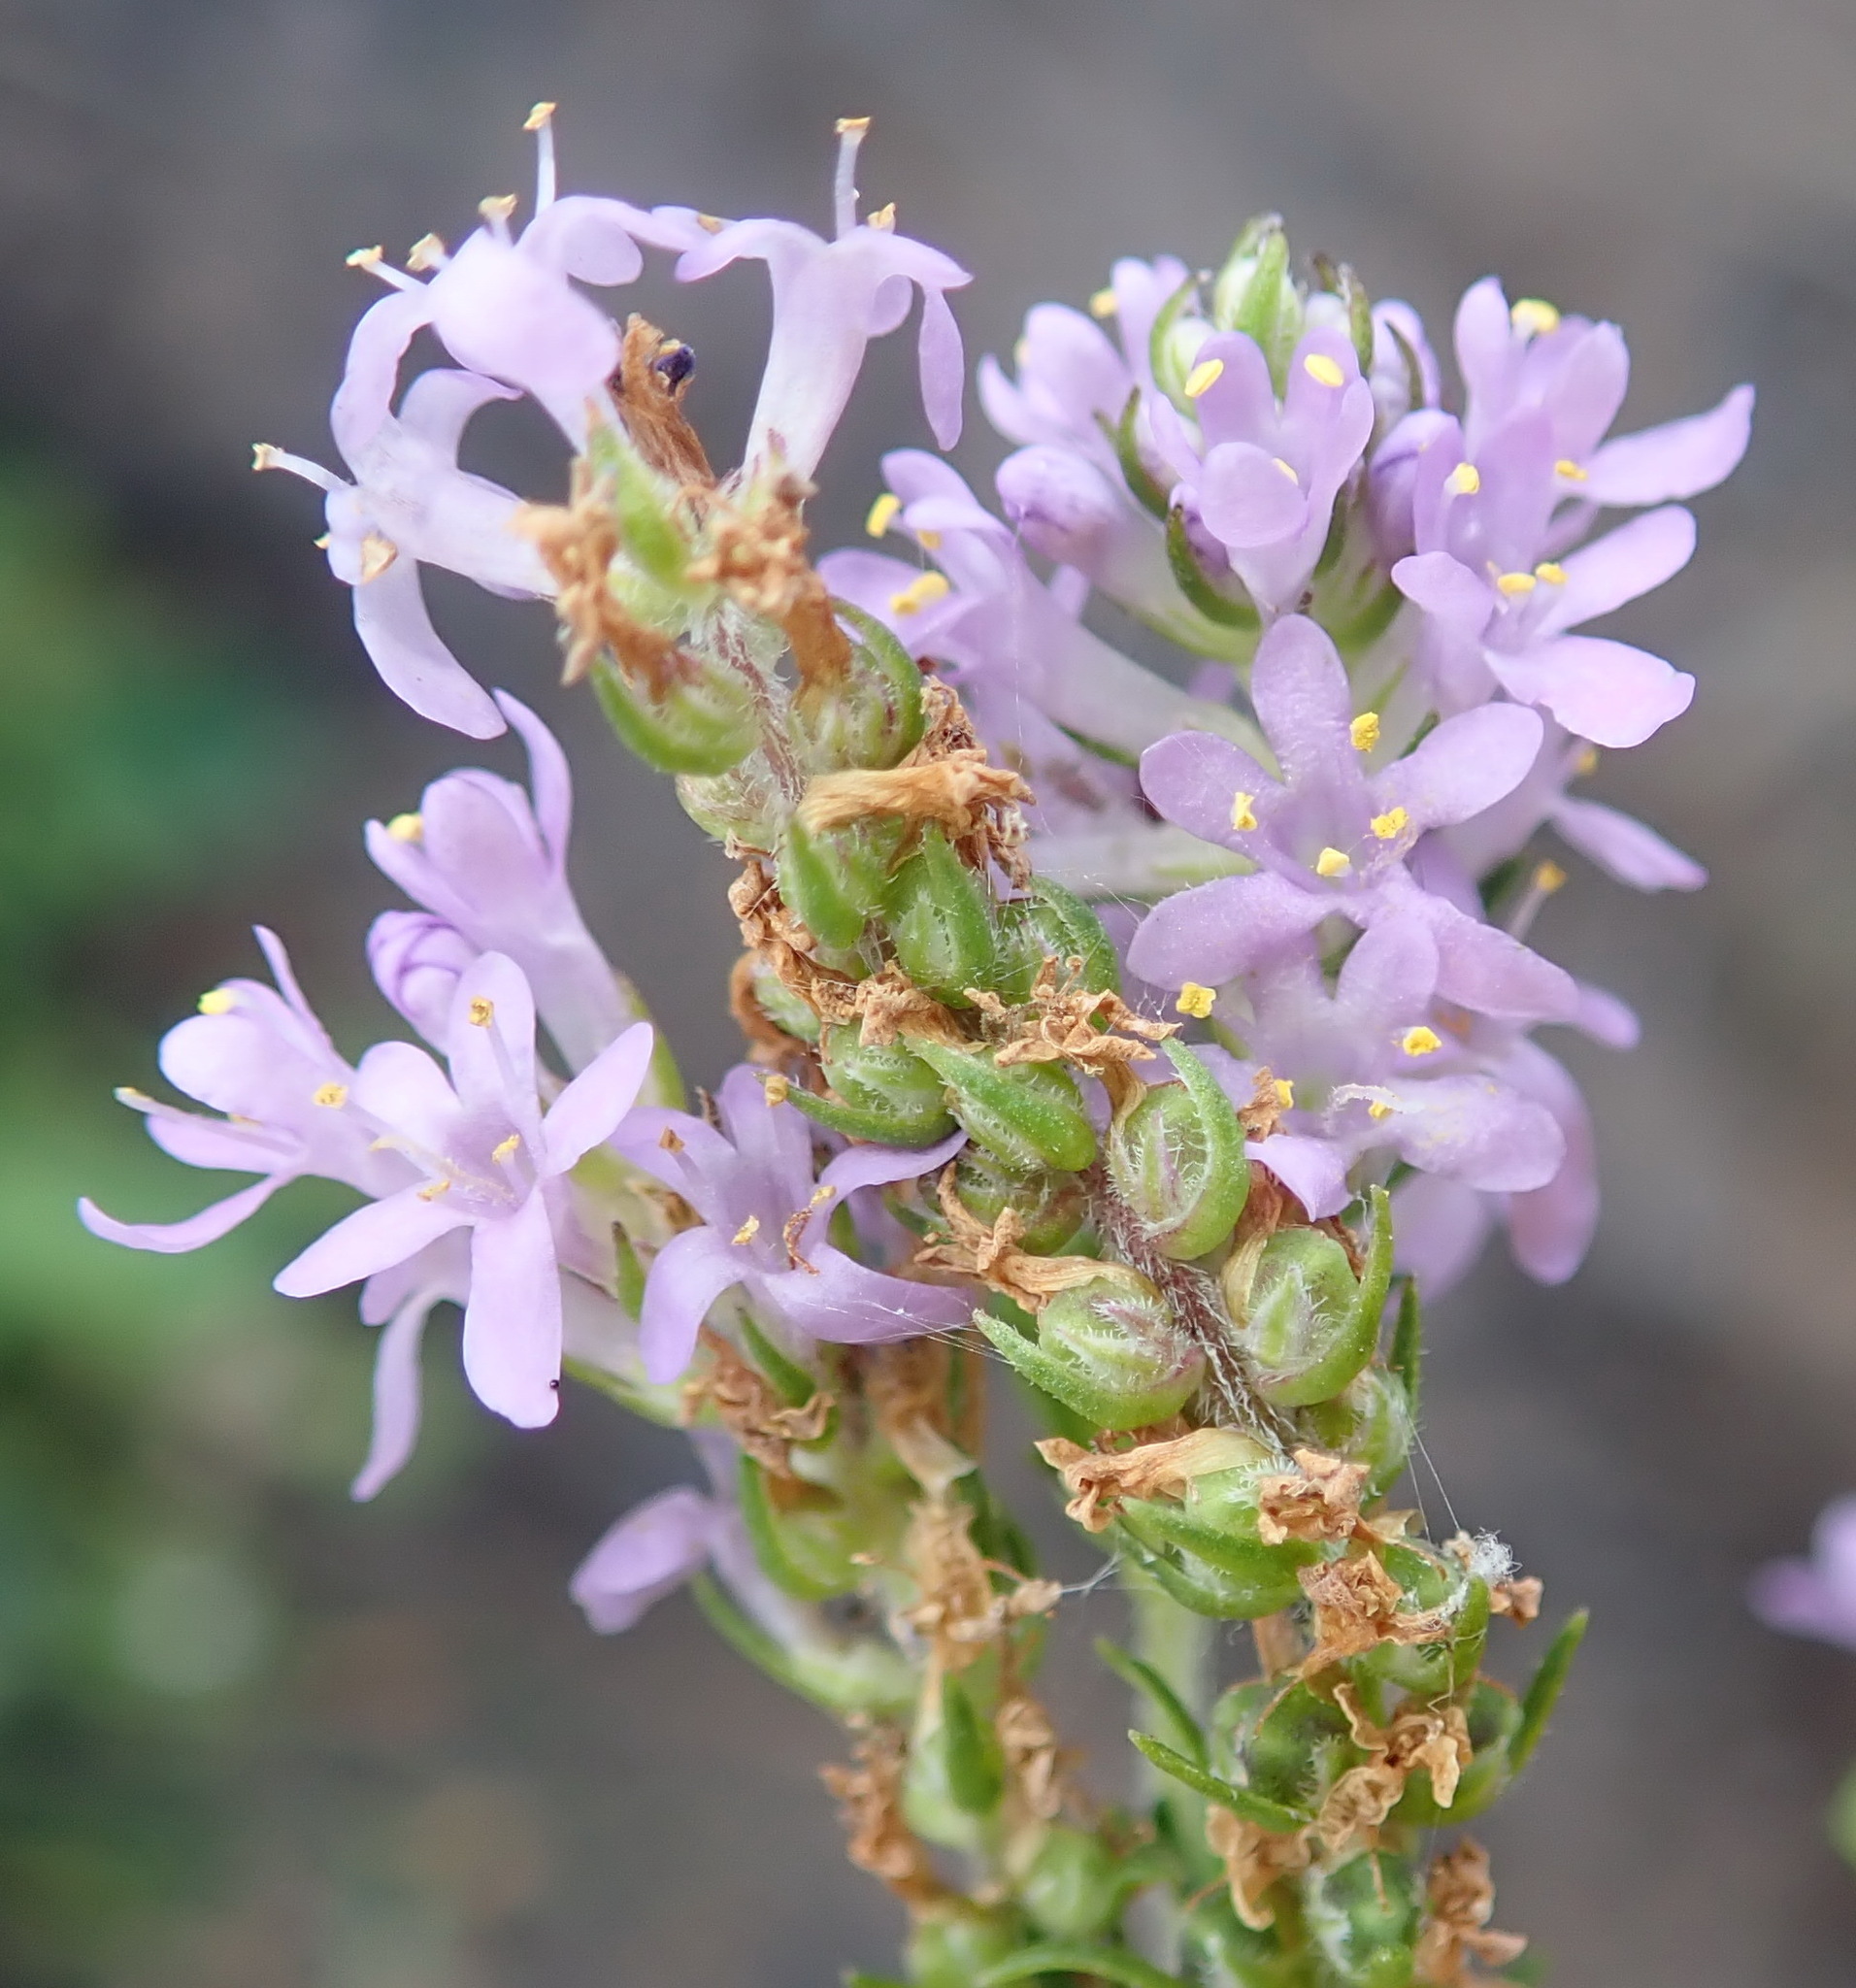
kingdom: Plantae
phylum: Tracheophyta
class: Magnoliopsida
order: Lamiales
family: Scrophulariaceae
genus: Selago
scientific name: Selago villicaulis
